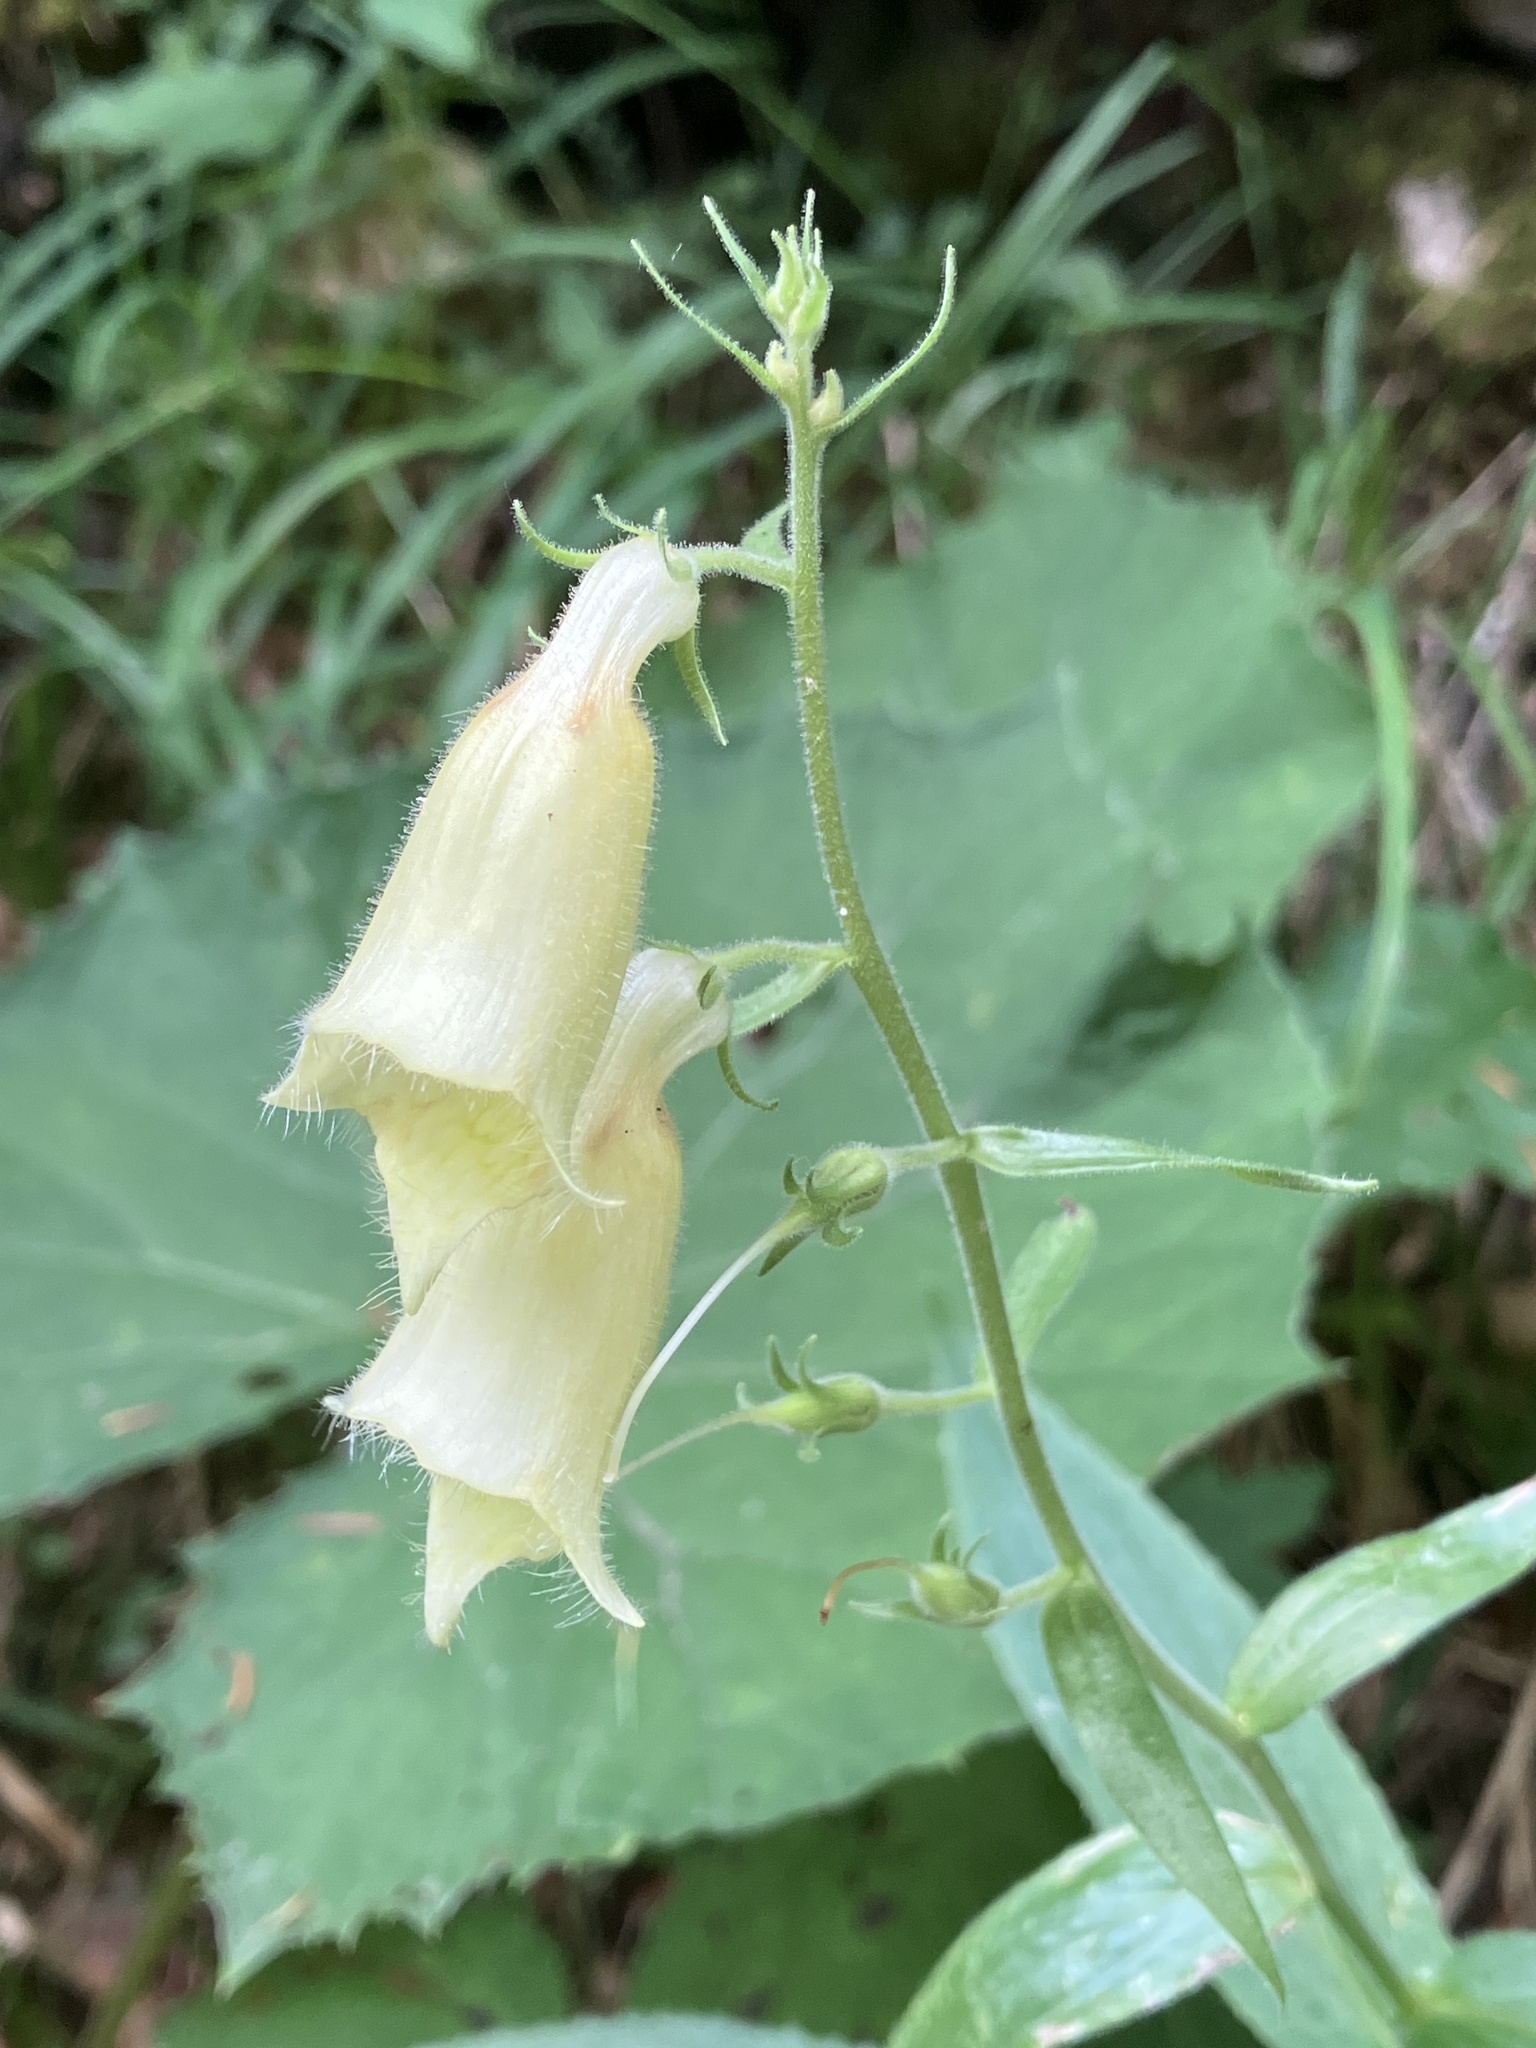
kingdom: Plantae
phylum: Tracheophyta
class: Magnoliopsida
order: Lamiales
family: Plantaginaceae
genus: Digitalis
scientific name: Digitalis grandiflora
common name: Yellow foxglove
